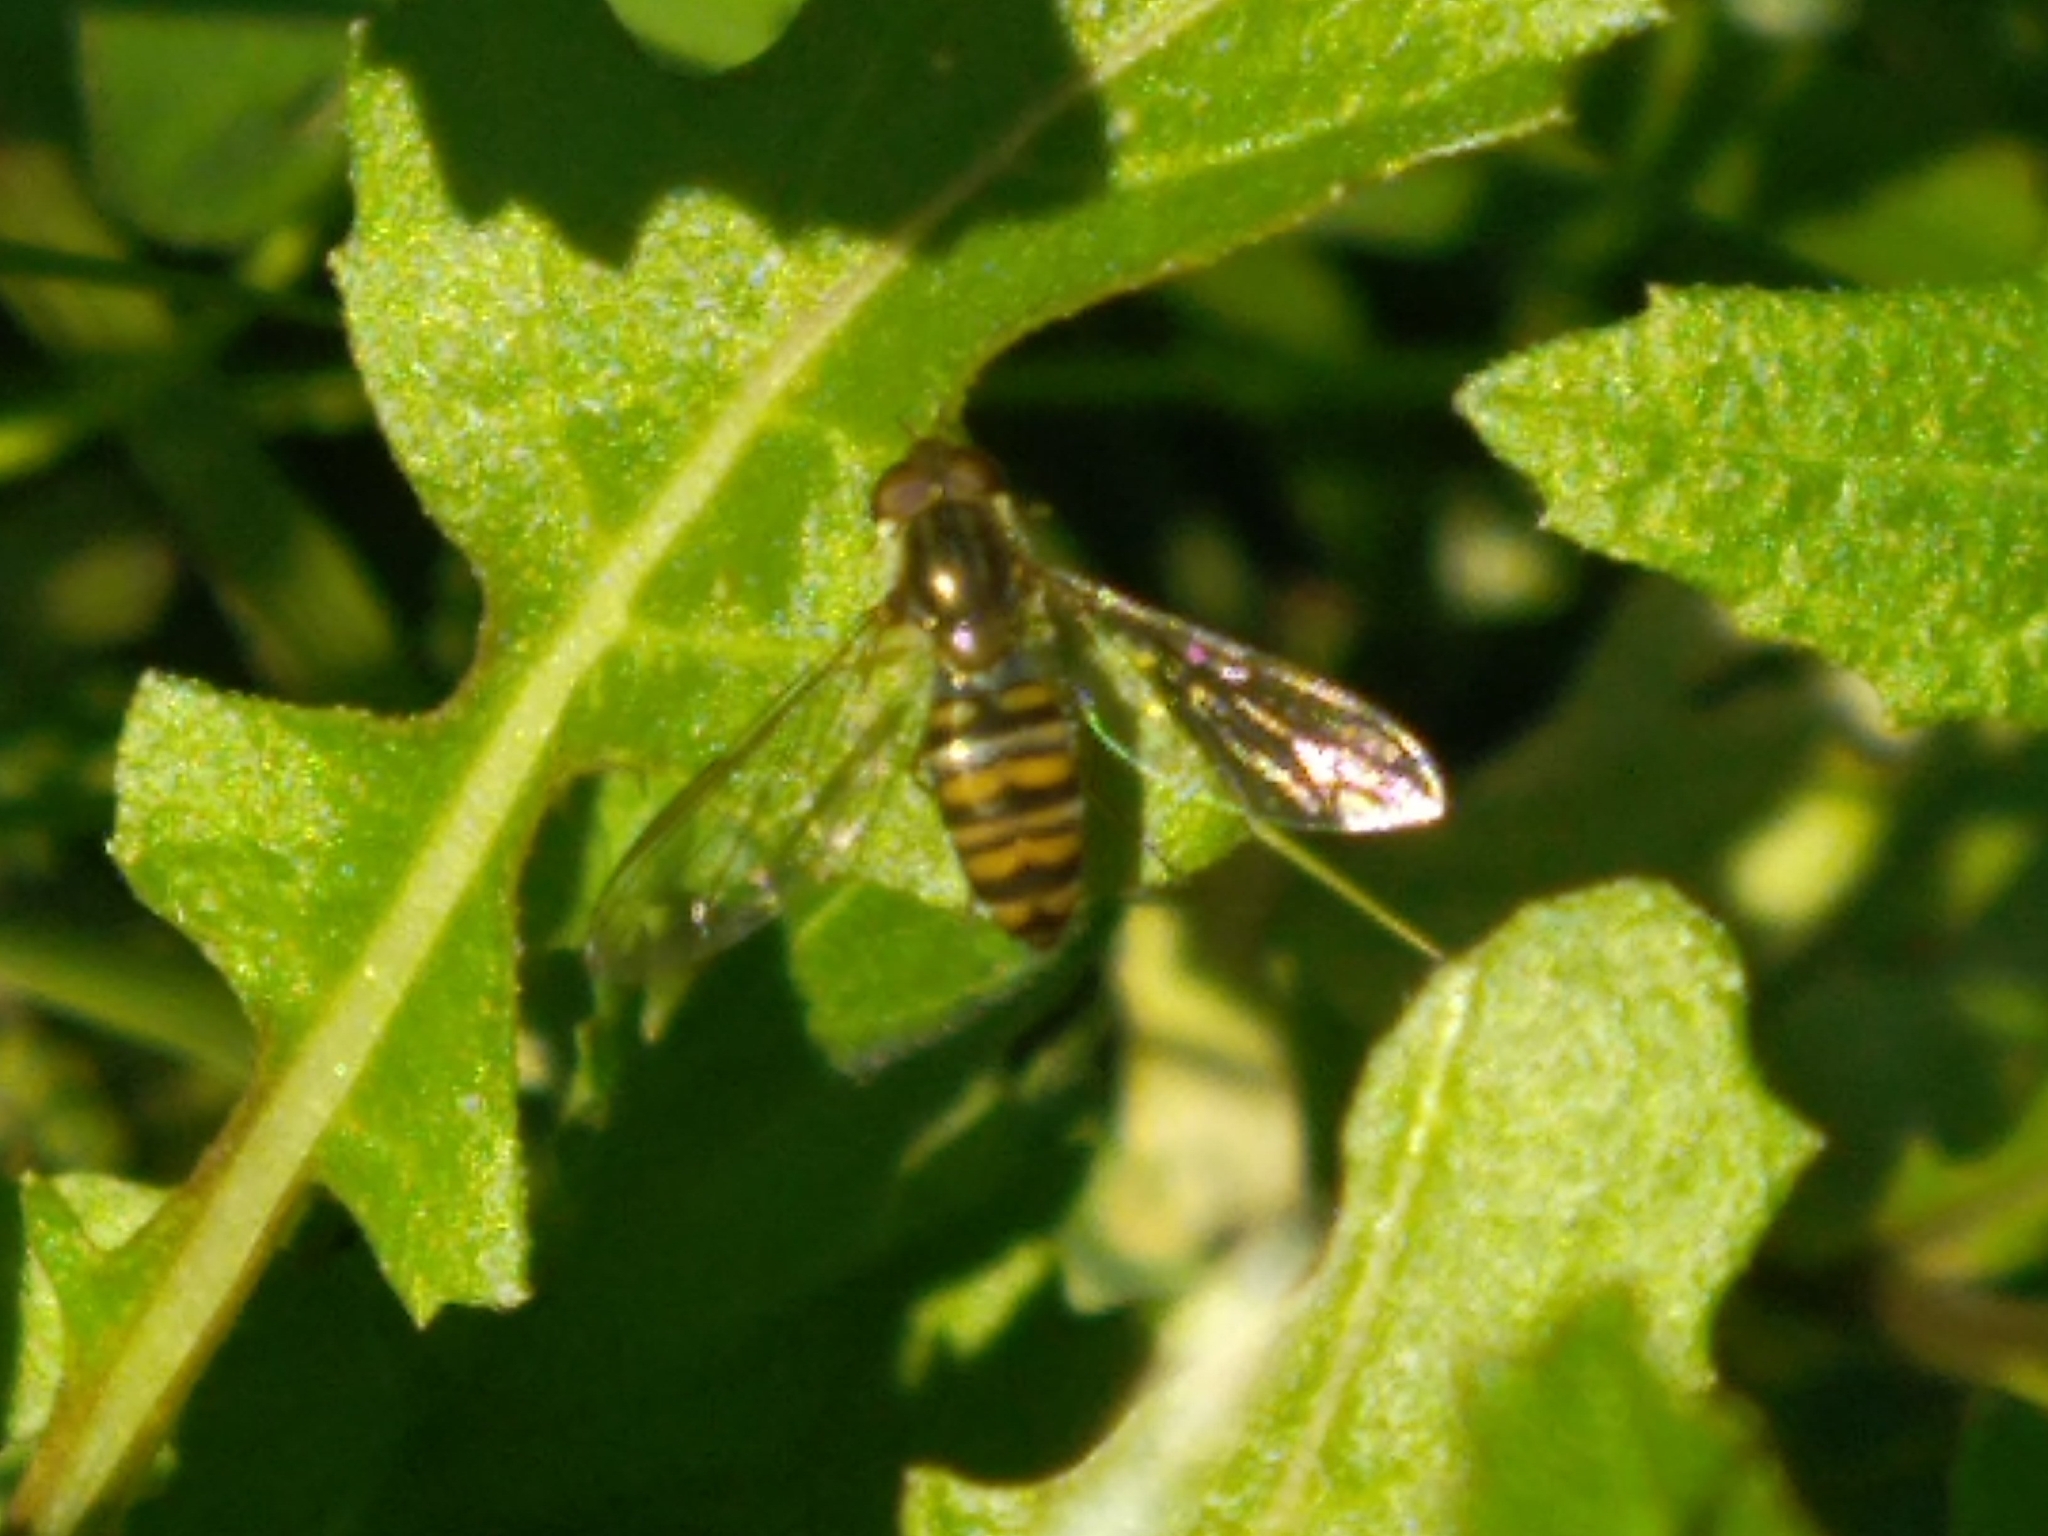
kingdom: Animalia
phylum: Arthropoda
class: Insecta
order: Diptera
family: Syrphidae
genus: Episyrphus
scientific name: Episyrphus balteatus
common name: Marmalade hoverfly
